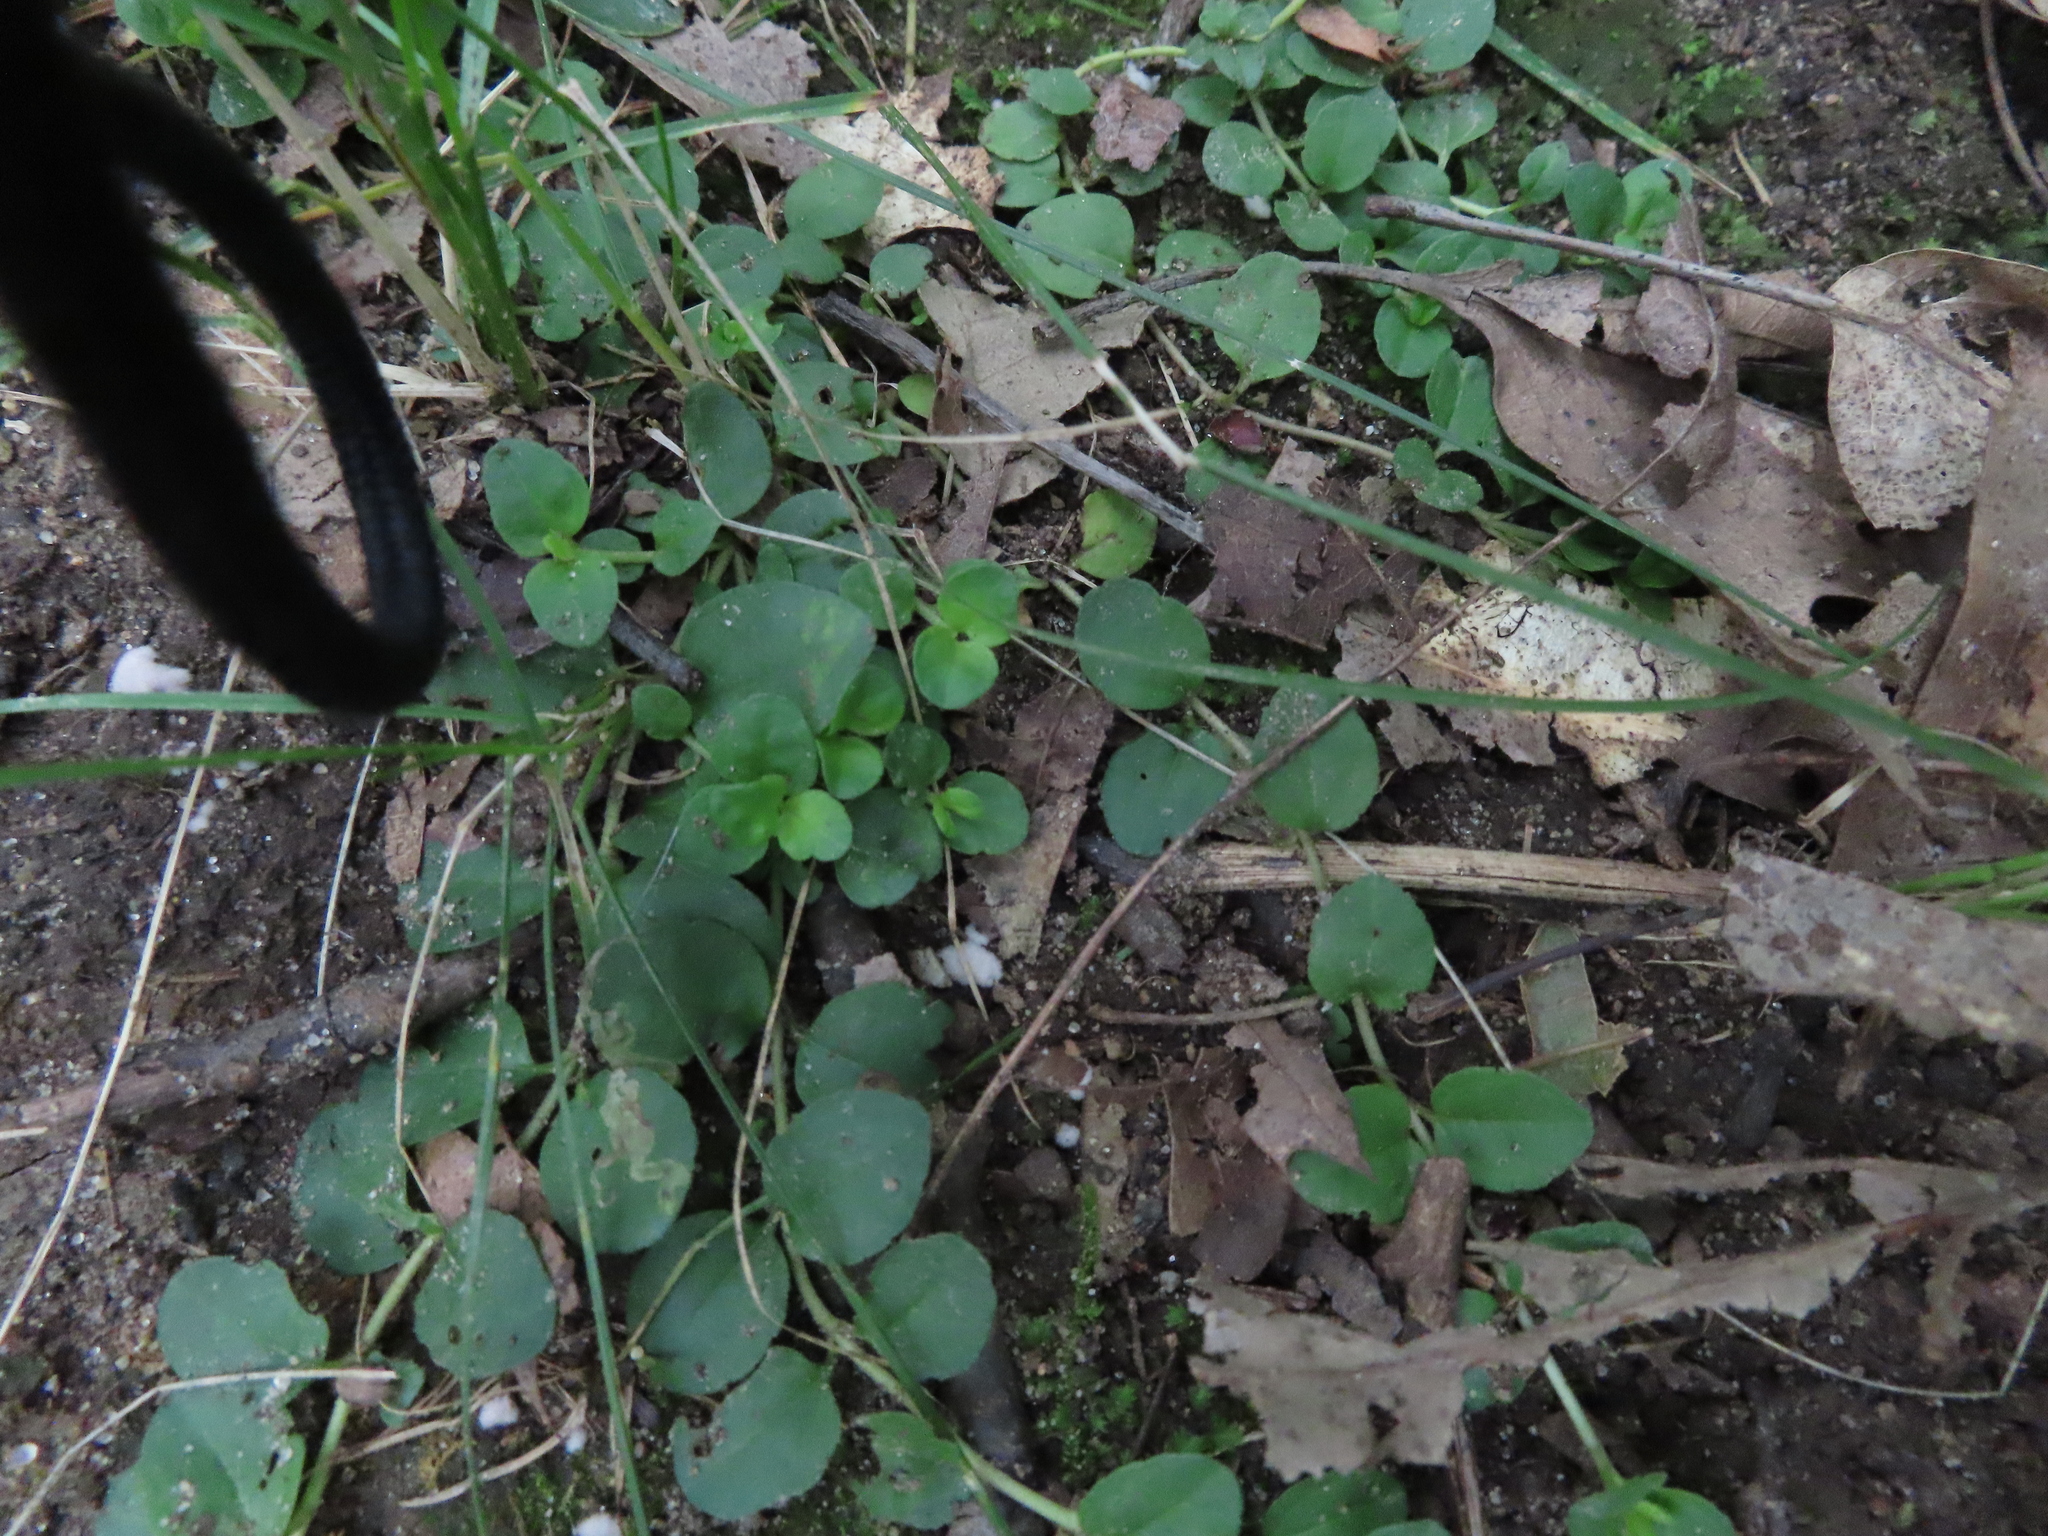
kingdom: Plantae
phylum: Tracheophyta
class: Magnoliopsida
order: Ericales
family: Primulaceae
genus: Lysimachia
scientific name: Lysimachia nummularia
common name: Moneywort
